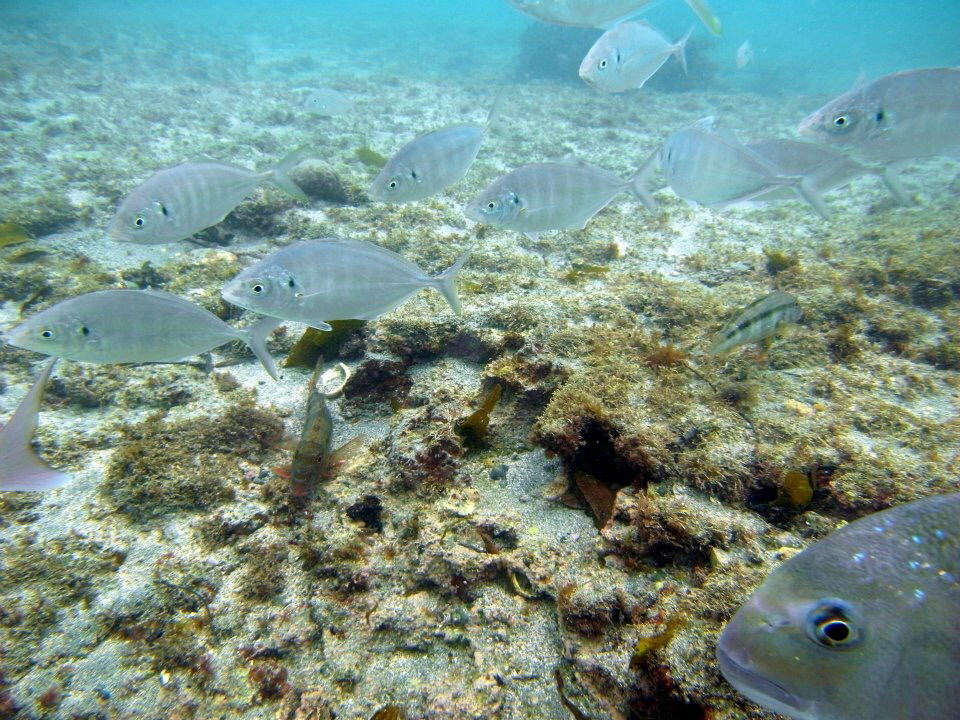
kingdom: Animalia
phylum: Chordata
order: Perciformes
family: Carangidae
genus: Pseudocaranx
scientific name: Pseudocaranx dentex
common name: White trevally
